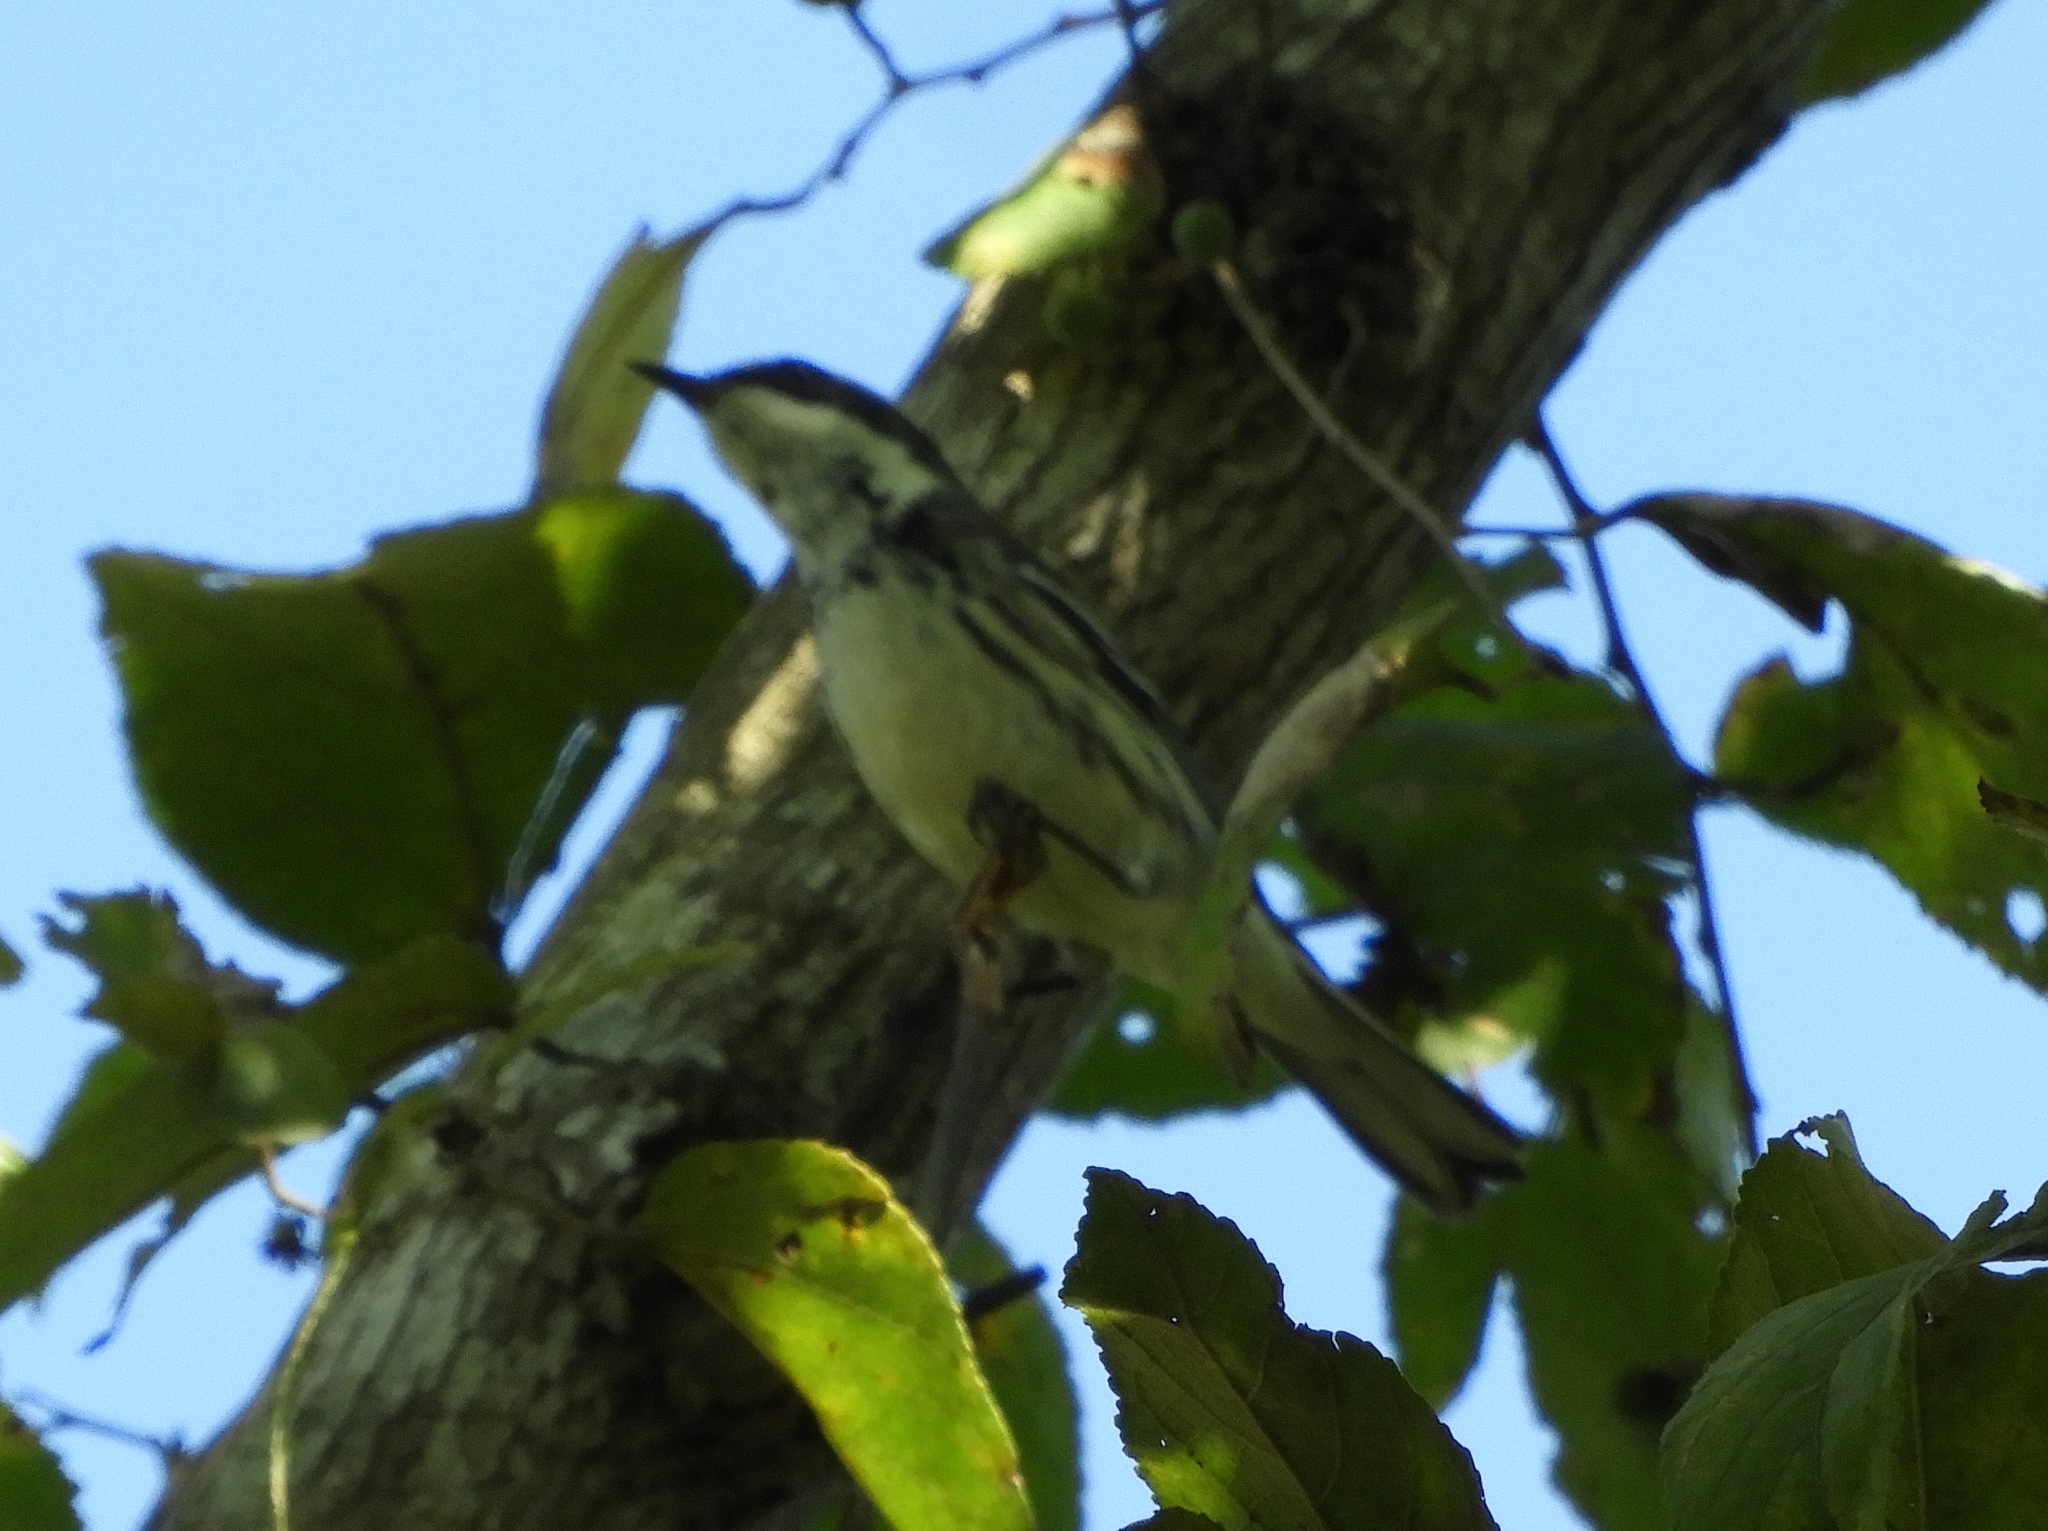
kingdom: Animalia
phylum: Chordata
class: Aves
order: Passeriformes
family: Parulidae
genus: Setophaga
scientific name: Setophaga nigrescens
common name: Black-throated gray warbler
